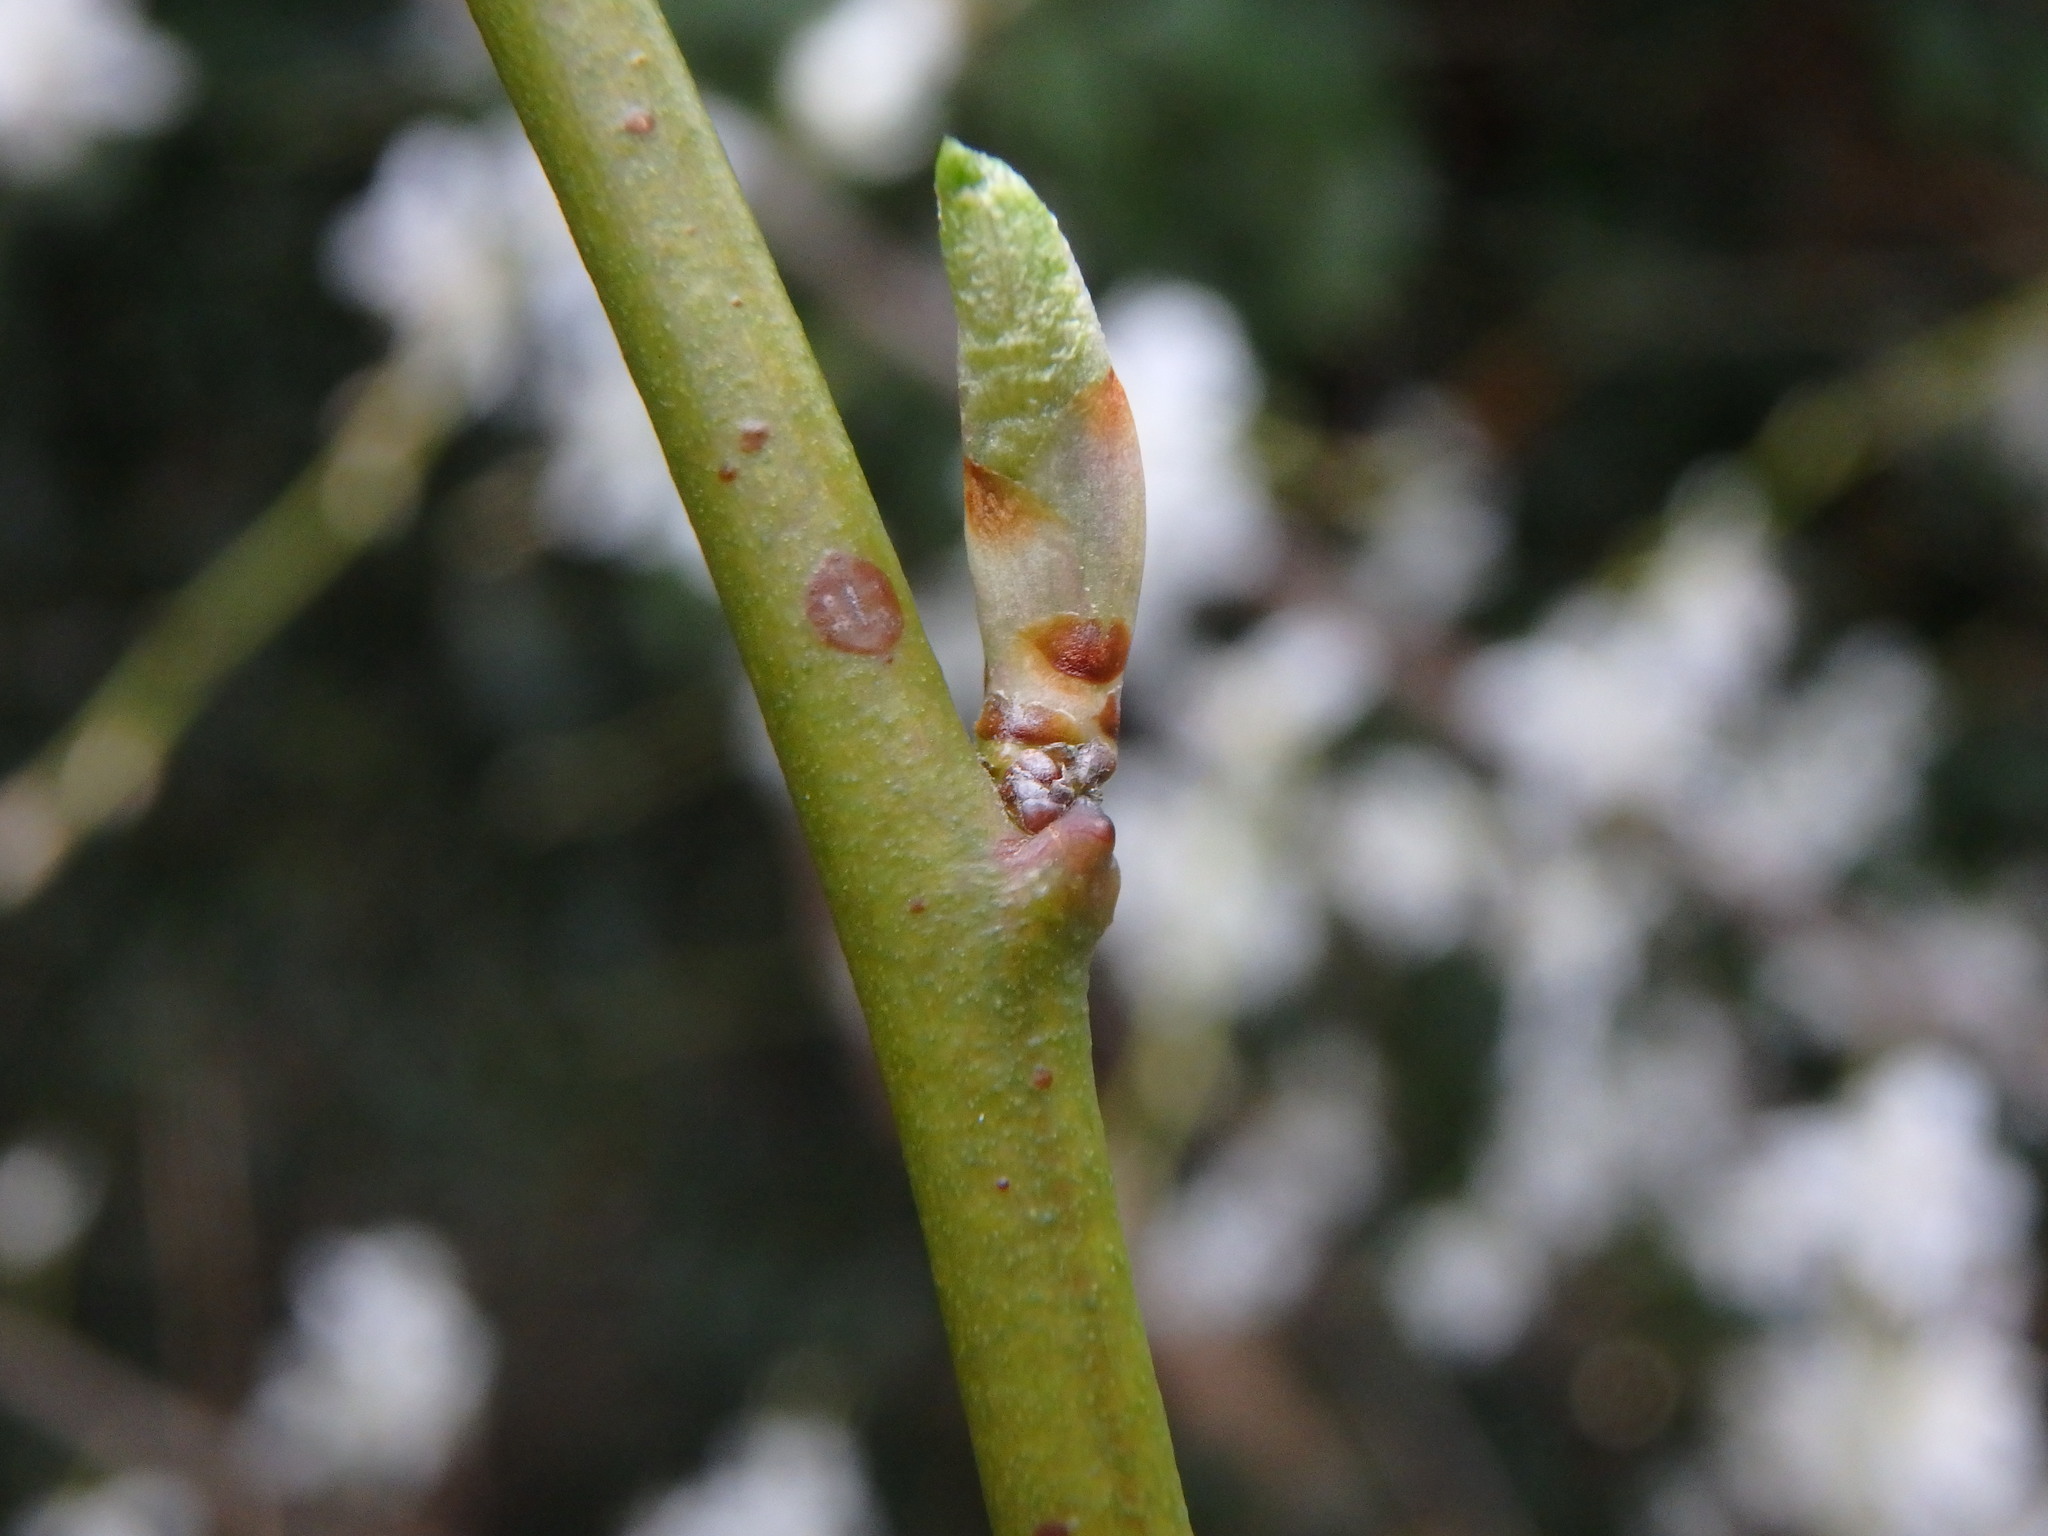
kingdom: Plantae
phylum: Tracheophyta
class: Magnoliopsida
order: Rosales
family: Rosaceae
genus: Prunus
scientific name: Prunus cerasifera
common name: Cherry plum
